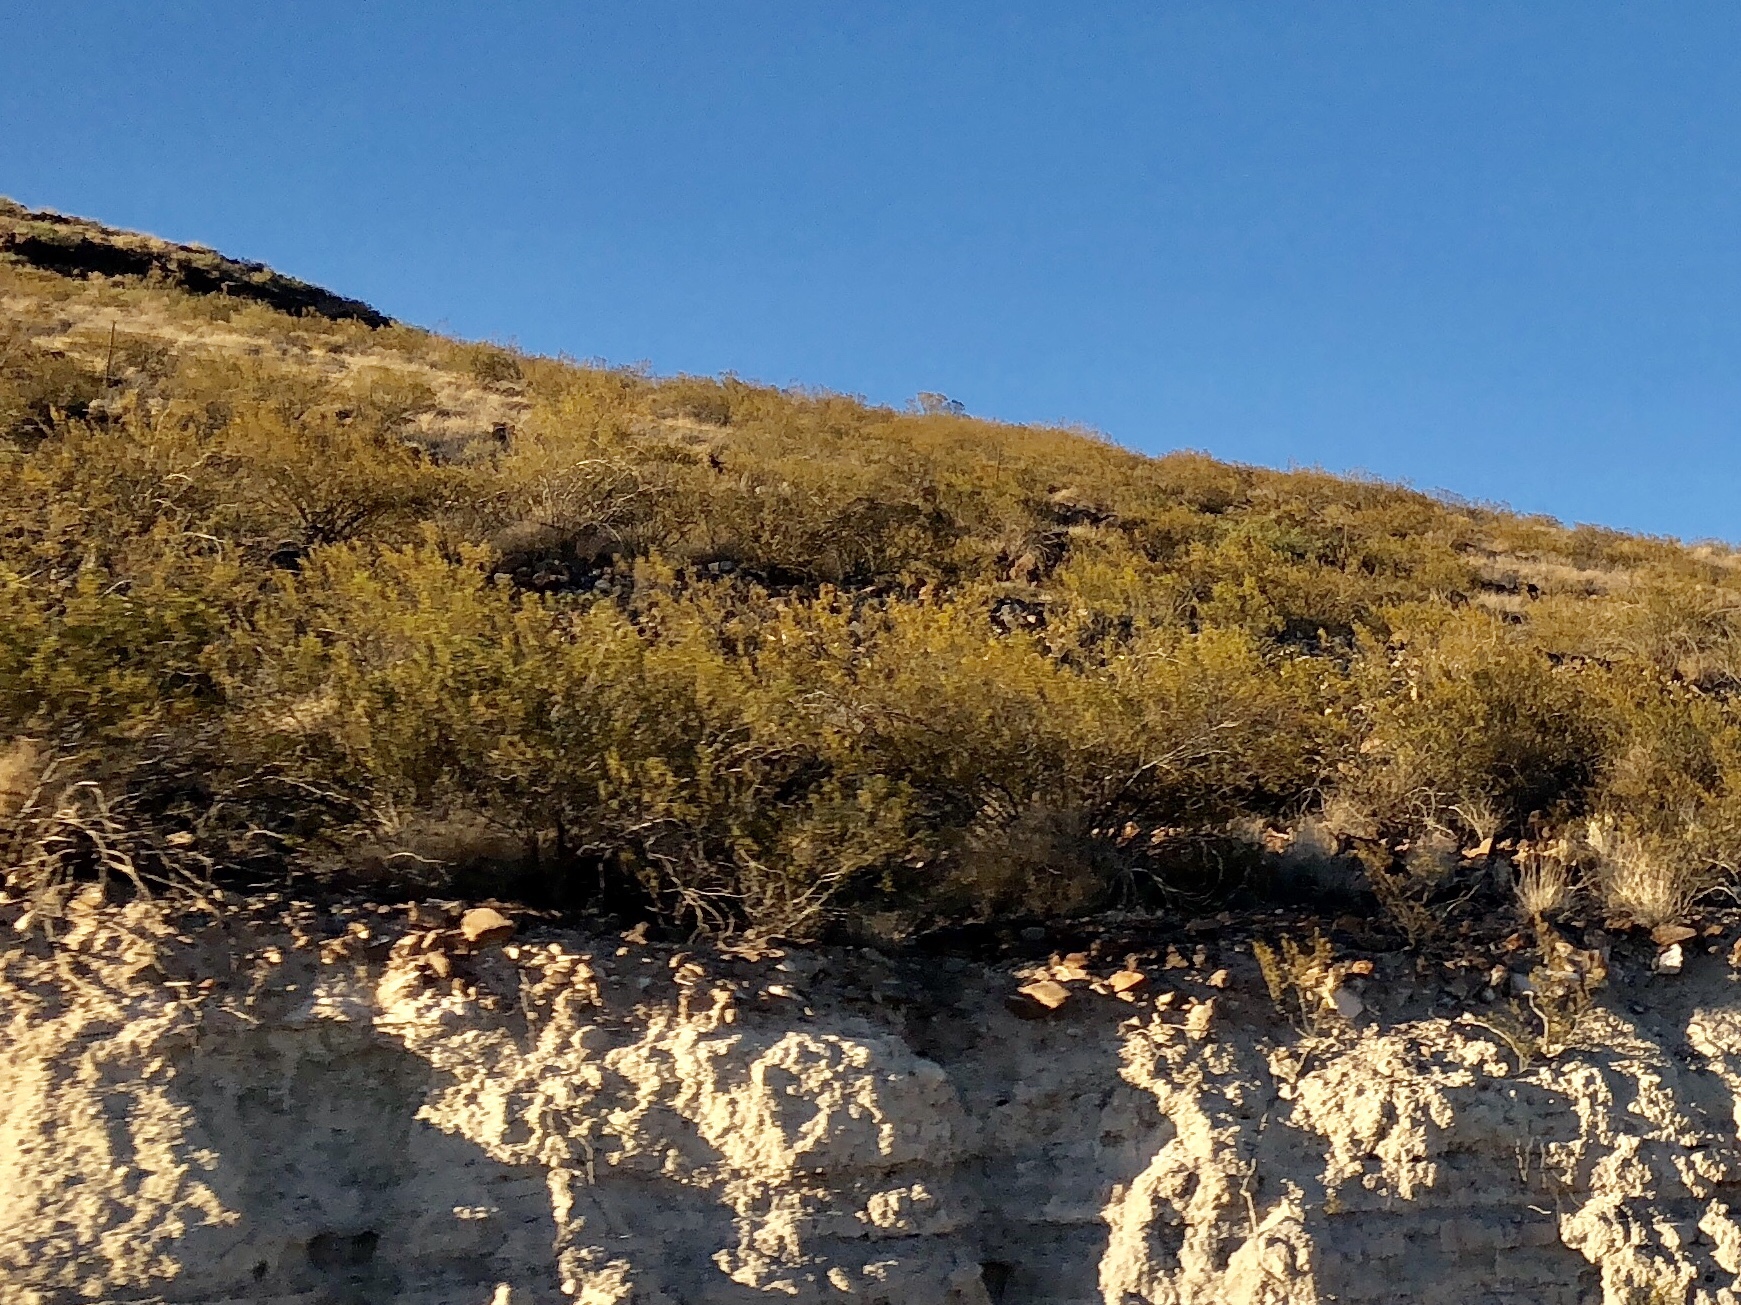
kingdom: Plantae
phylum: Tracheophyta
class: Magnoliopsida
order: Zygophyllales
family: Zygophyllaceae
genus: Larrea
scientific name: Larrea tridentata
